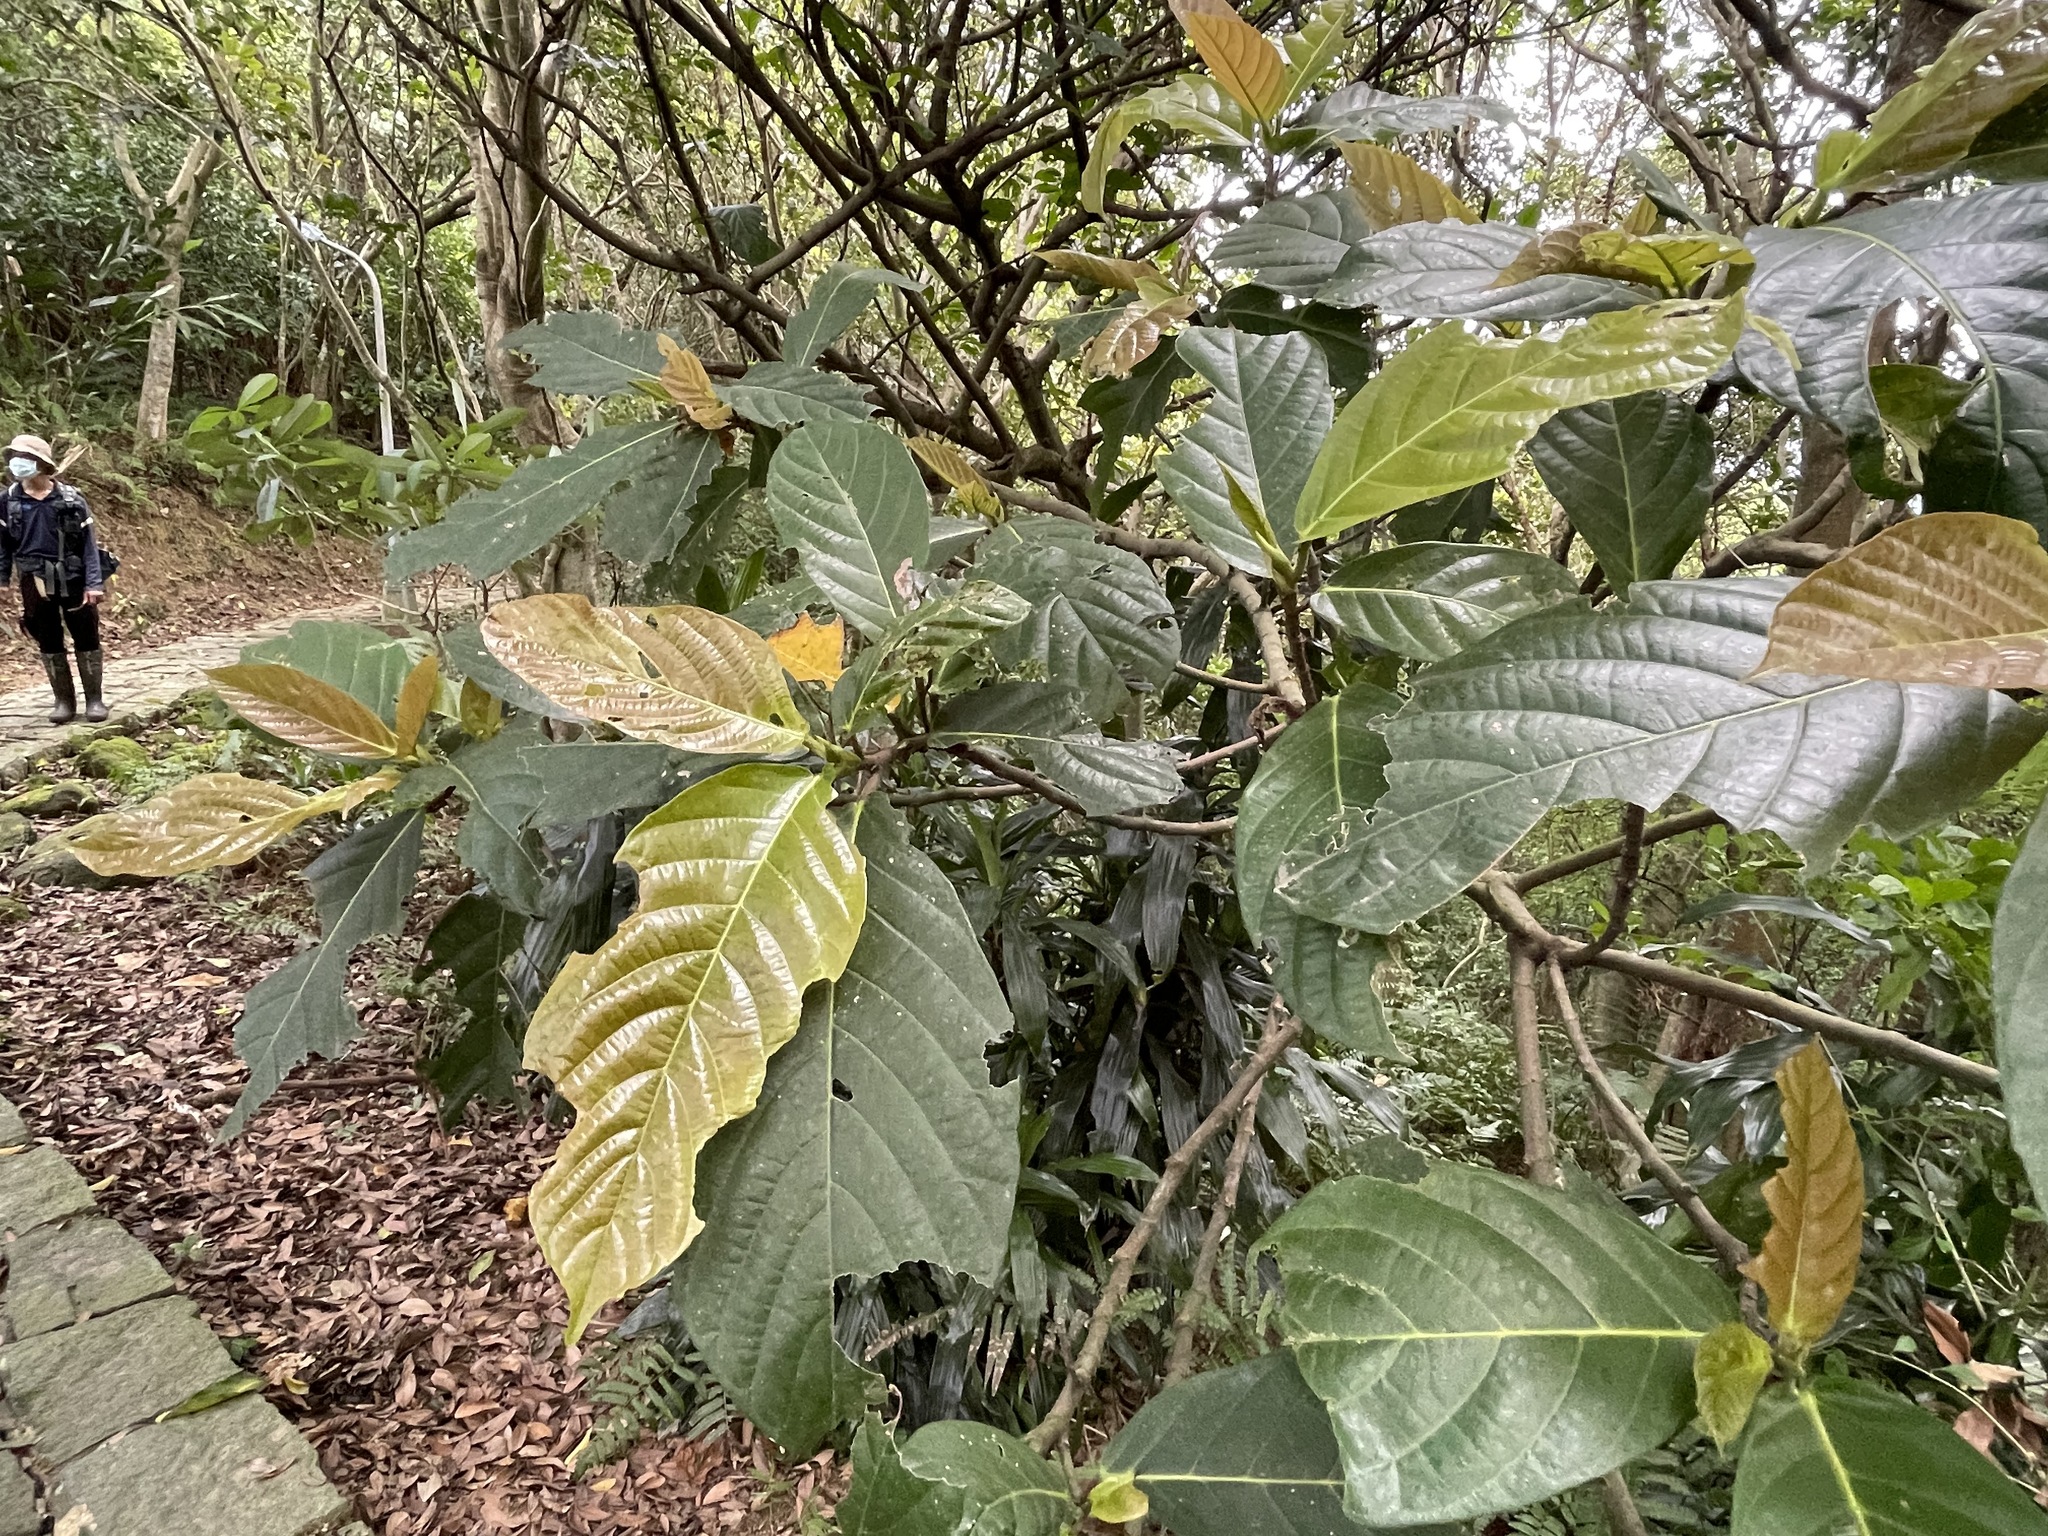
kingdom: Plantae
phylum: Tracheophyta
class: Magnoliopsida
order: Rosales
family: Moraceae
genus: Ficus
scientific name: Ficus fistulosa
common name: Figs
